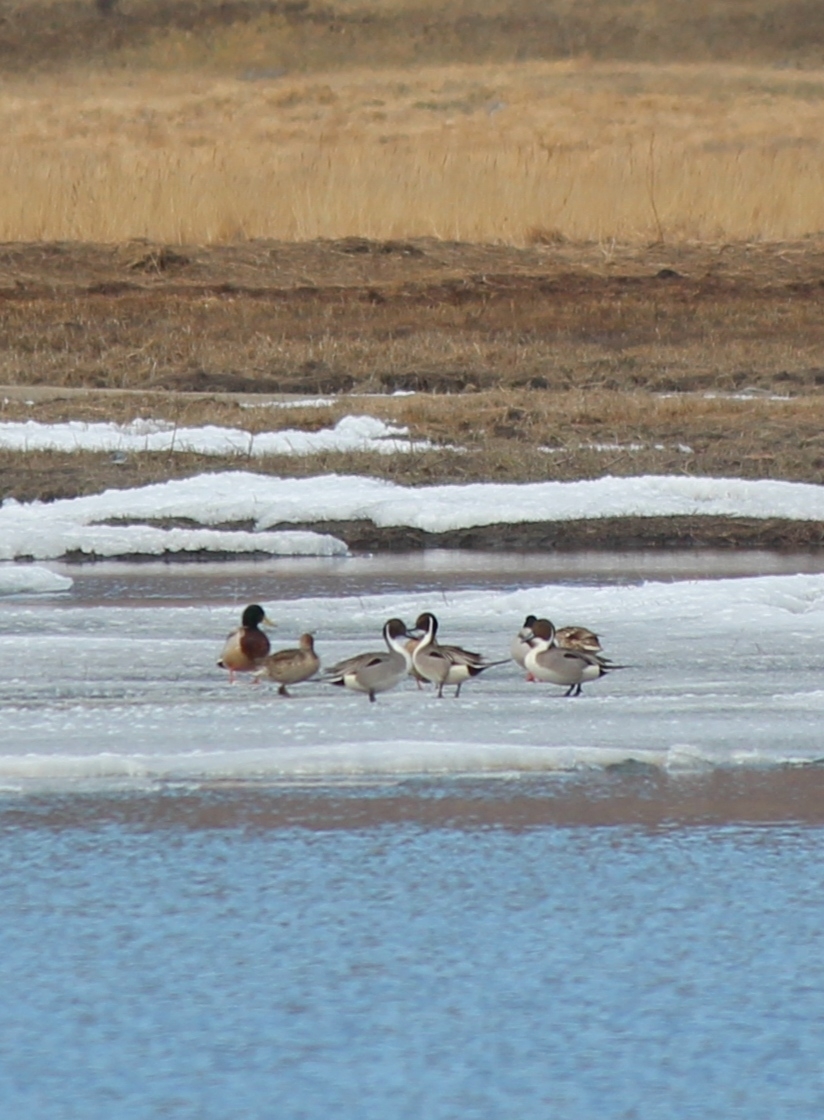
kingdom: Animalia
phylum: Chordata
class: Aves
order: Anseriformes
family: Anatidae
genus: Anas
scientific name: Anas acuta
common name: Northern pintail
